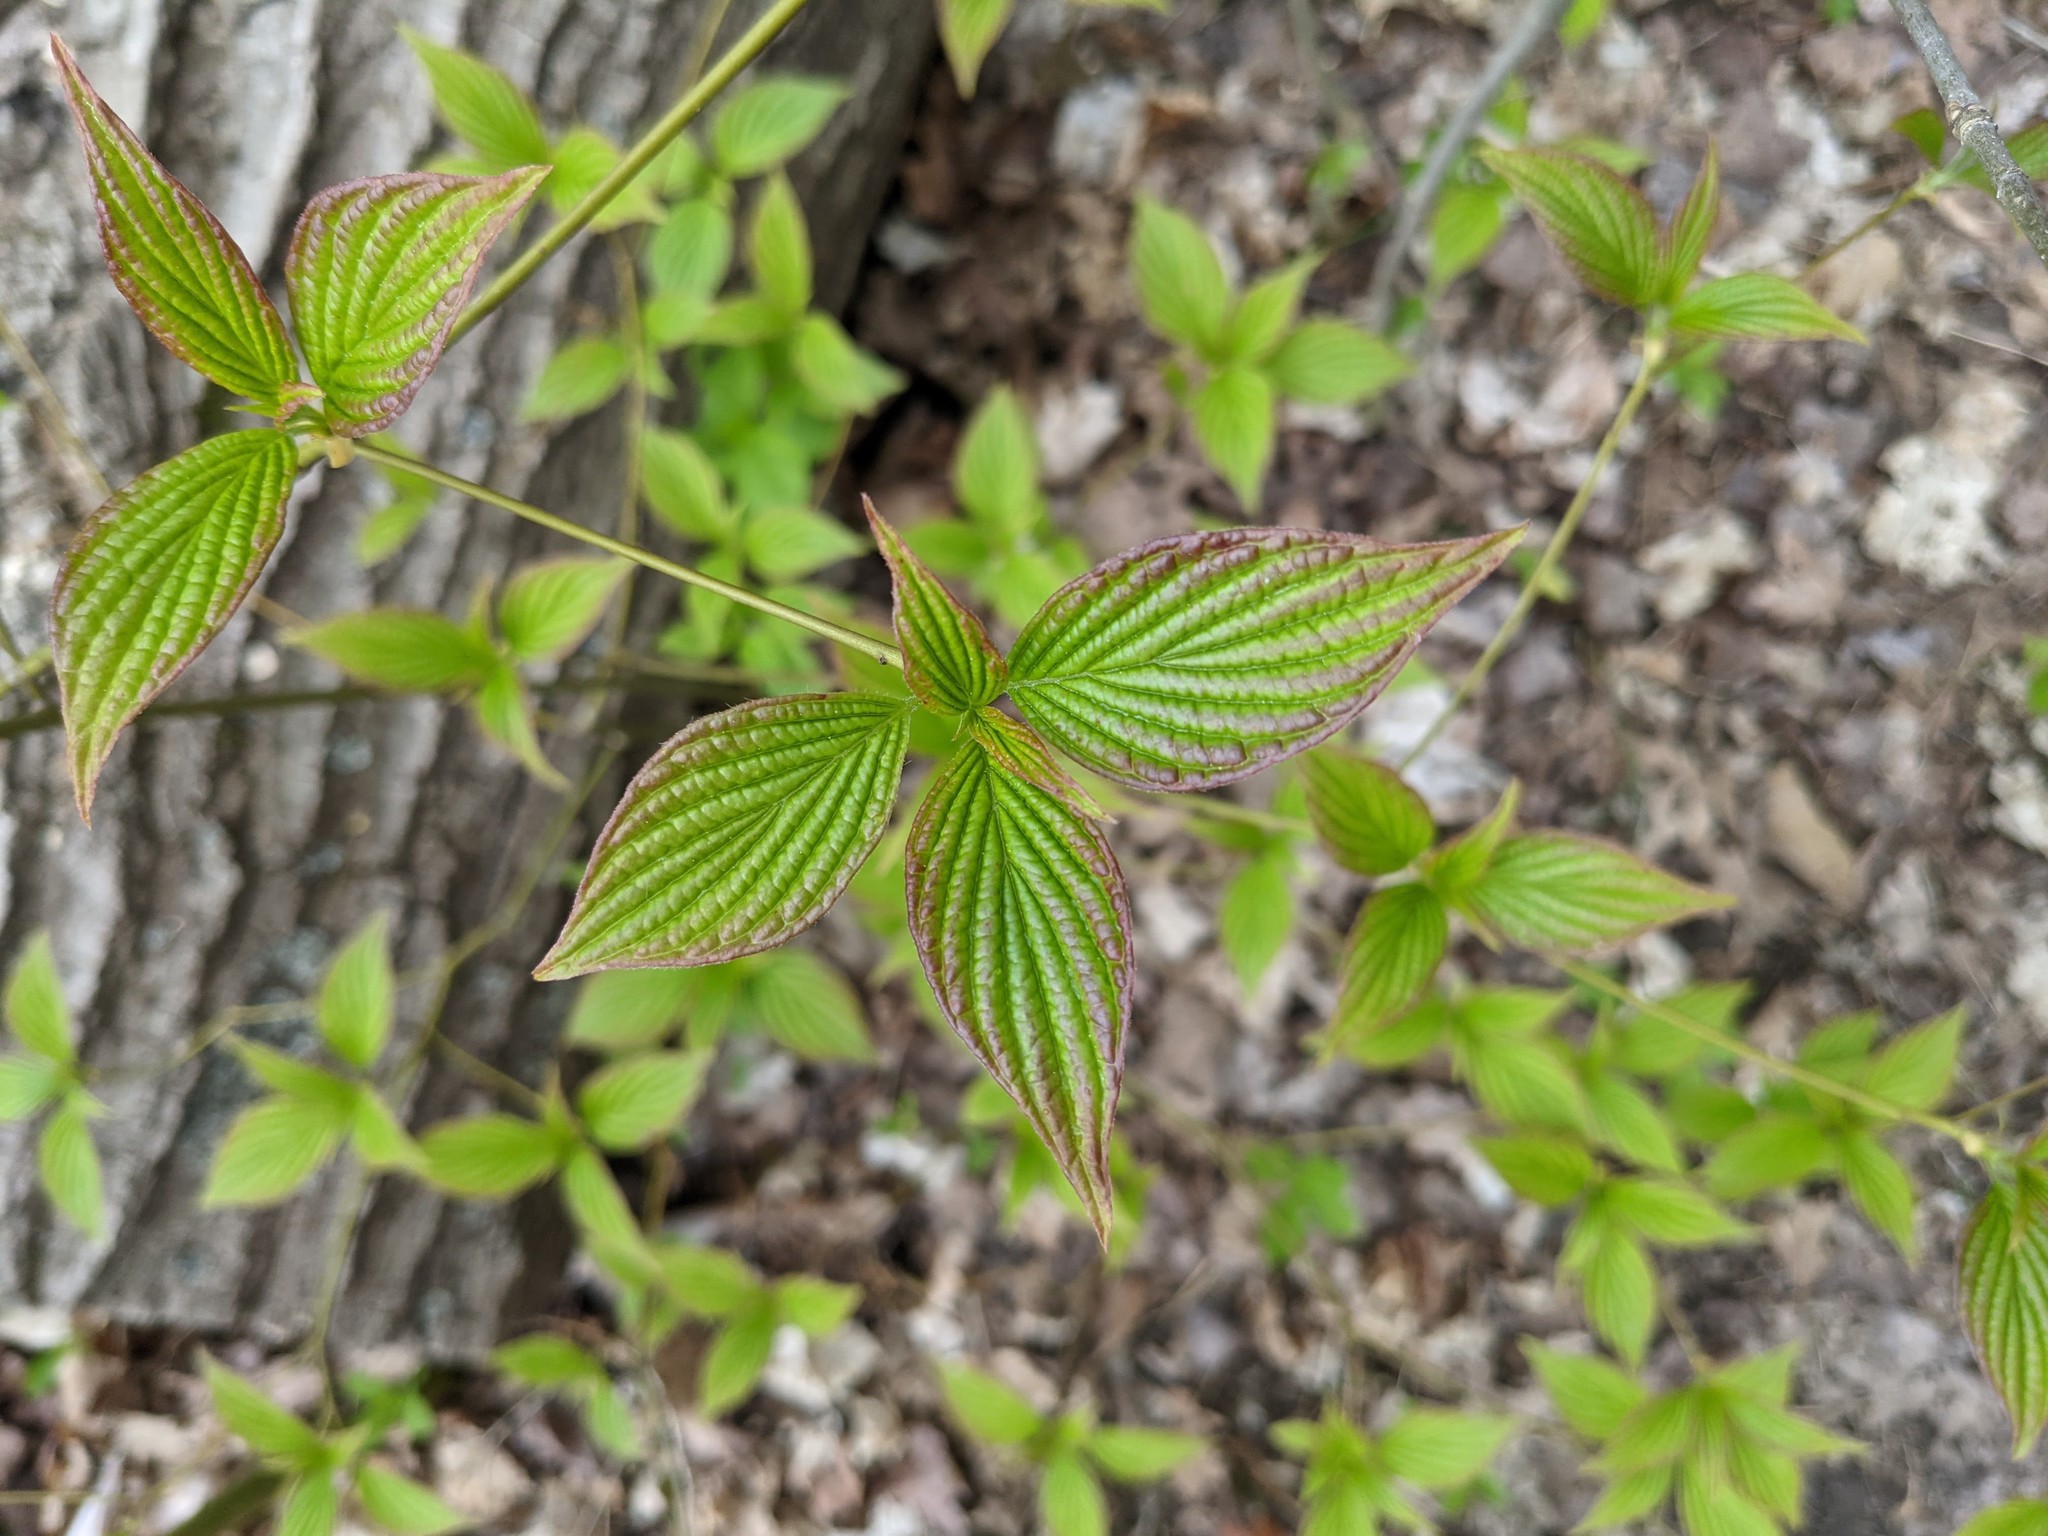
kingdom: Plantae
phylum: Tracheophyta
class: Magnoliopsida
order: Cornales
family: Cornaceae
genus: Cornus
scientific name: Cornus alternifolia
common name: Pagoda dogwood
